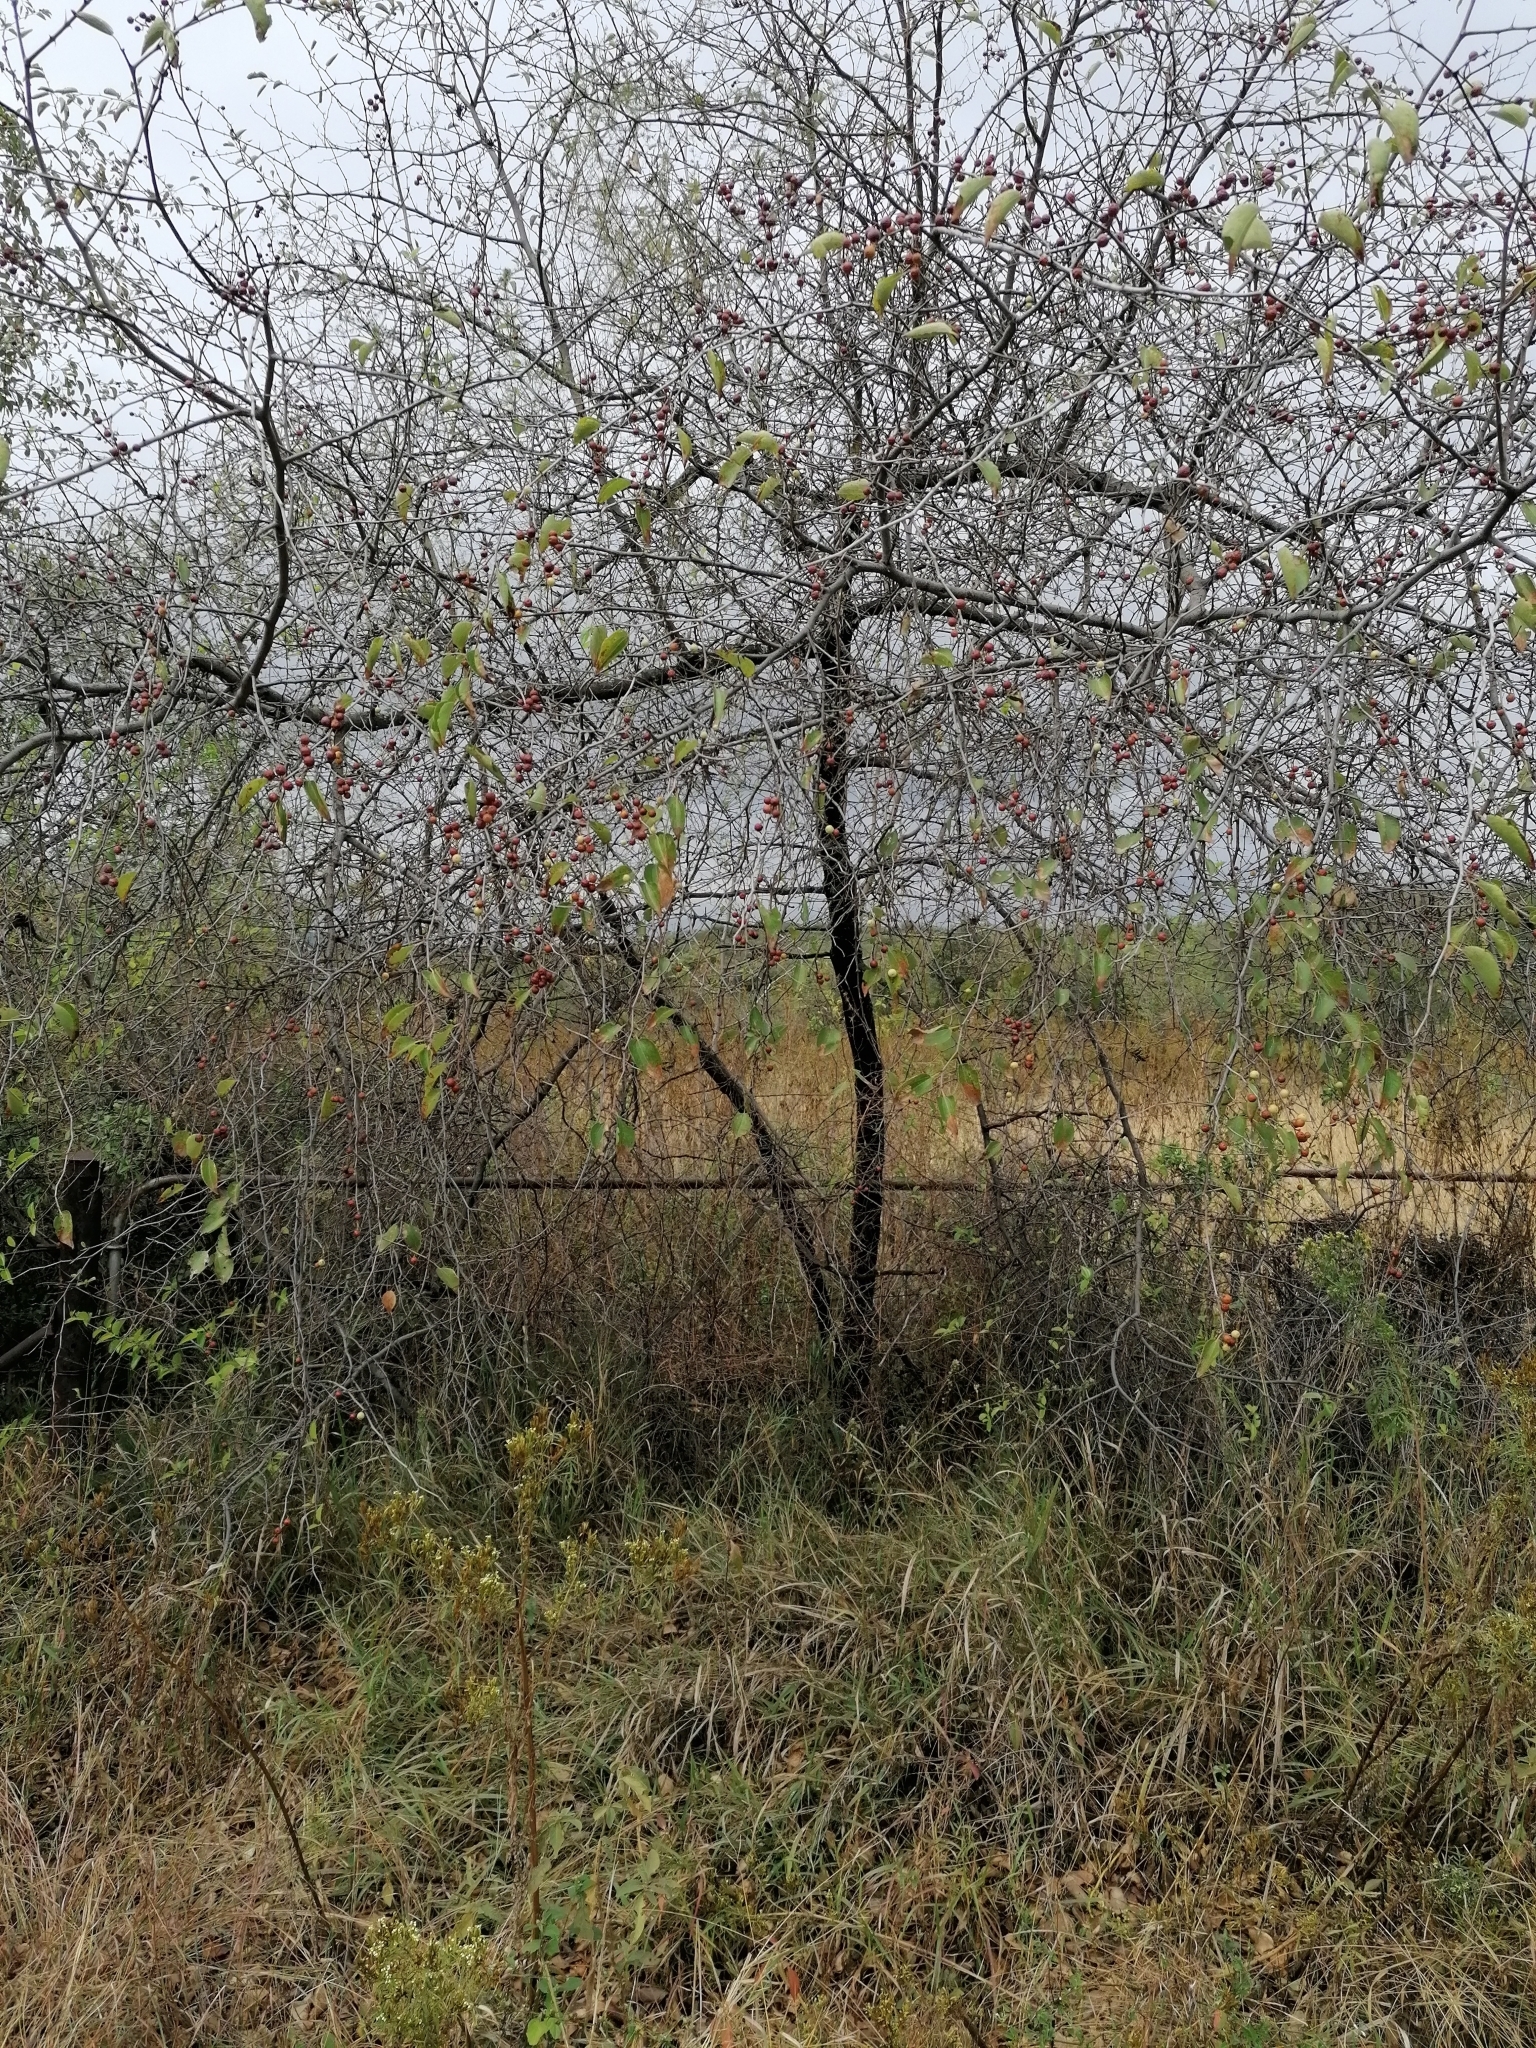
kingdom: Plantae
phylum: Tracheophyta
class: Magnoliopsida
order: Rosales
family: Rhamnaceae
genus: Ziziphus
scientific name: Ziziphus mucronata
